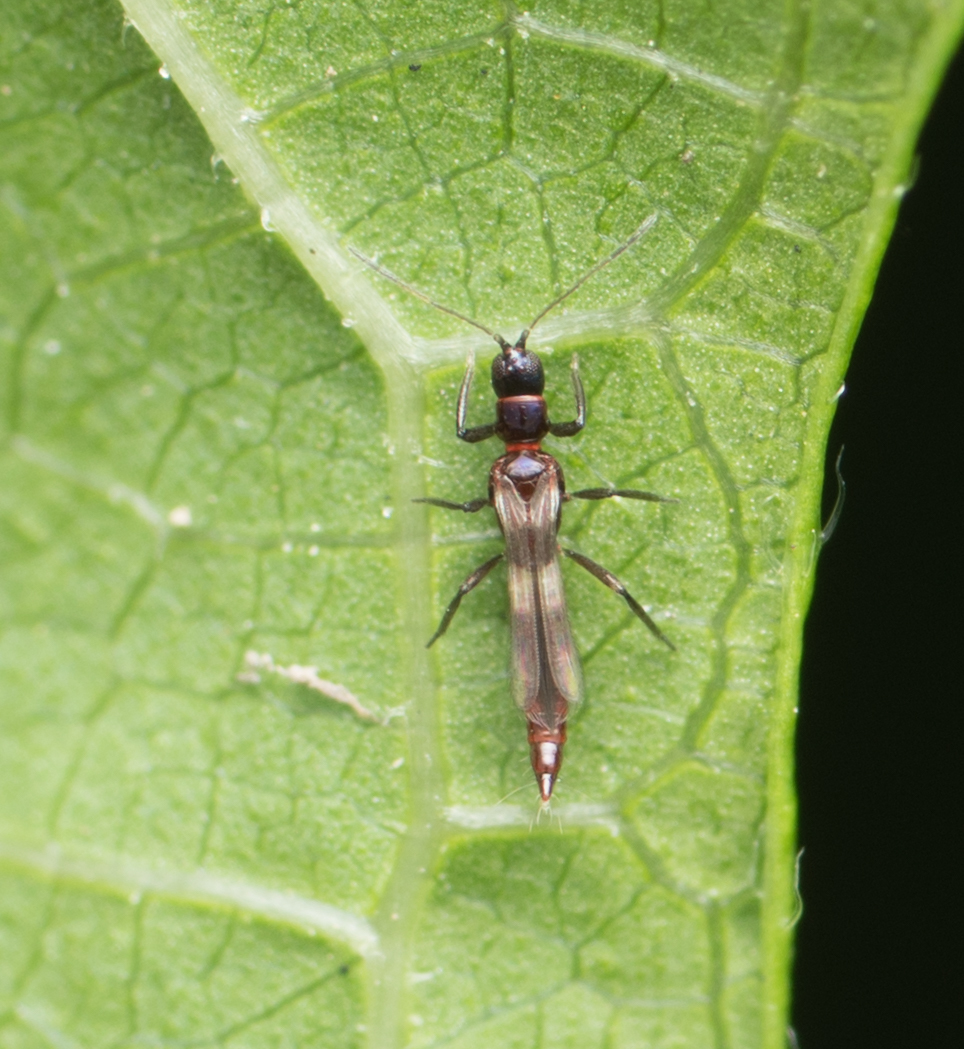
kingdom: Animalia
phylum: Arthropoda
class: Insecta
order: Thysanoptera
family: Aeolothripidae
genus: Franklinothrips
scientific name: Franklinothrips vespiformis
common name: Banded thrip
